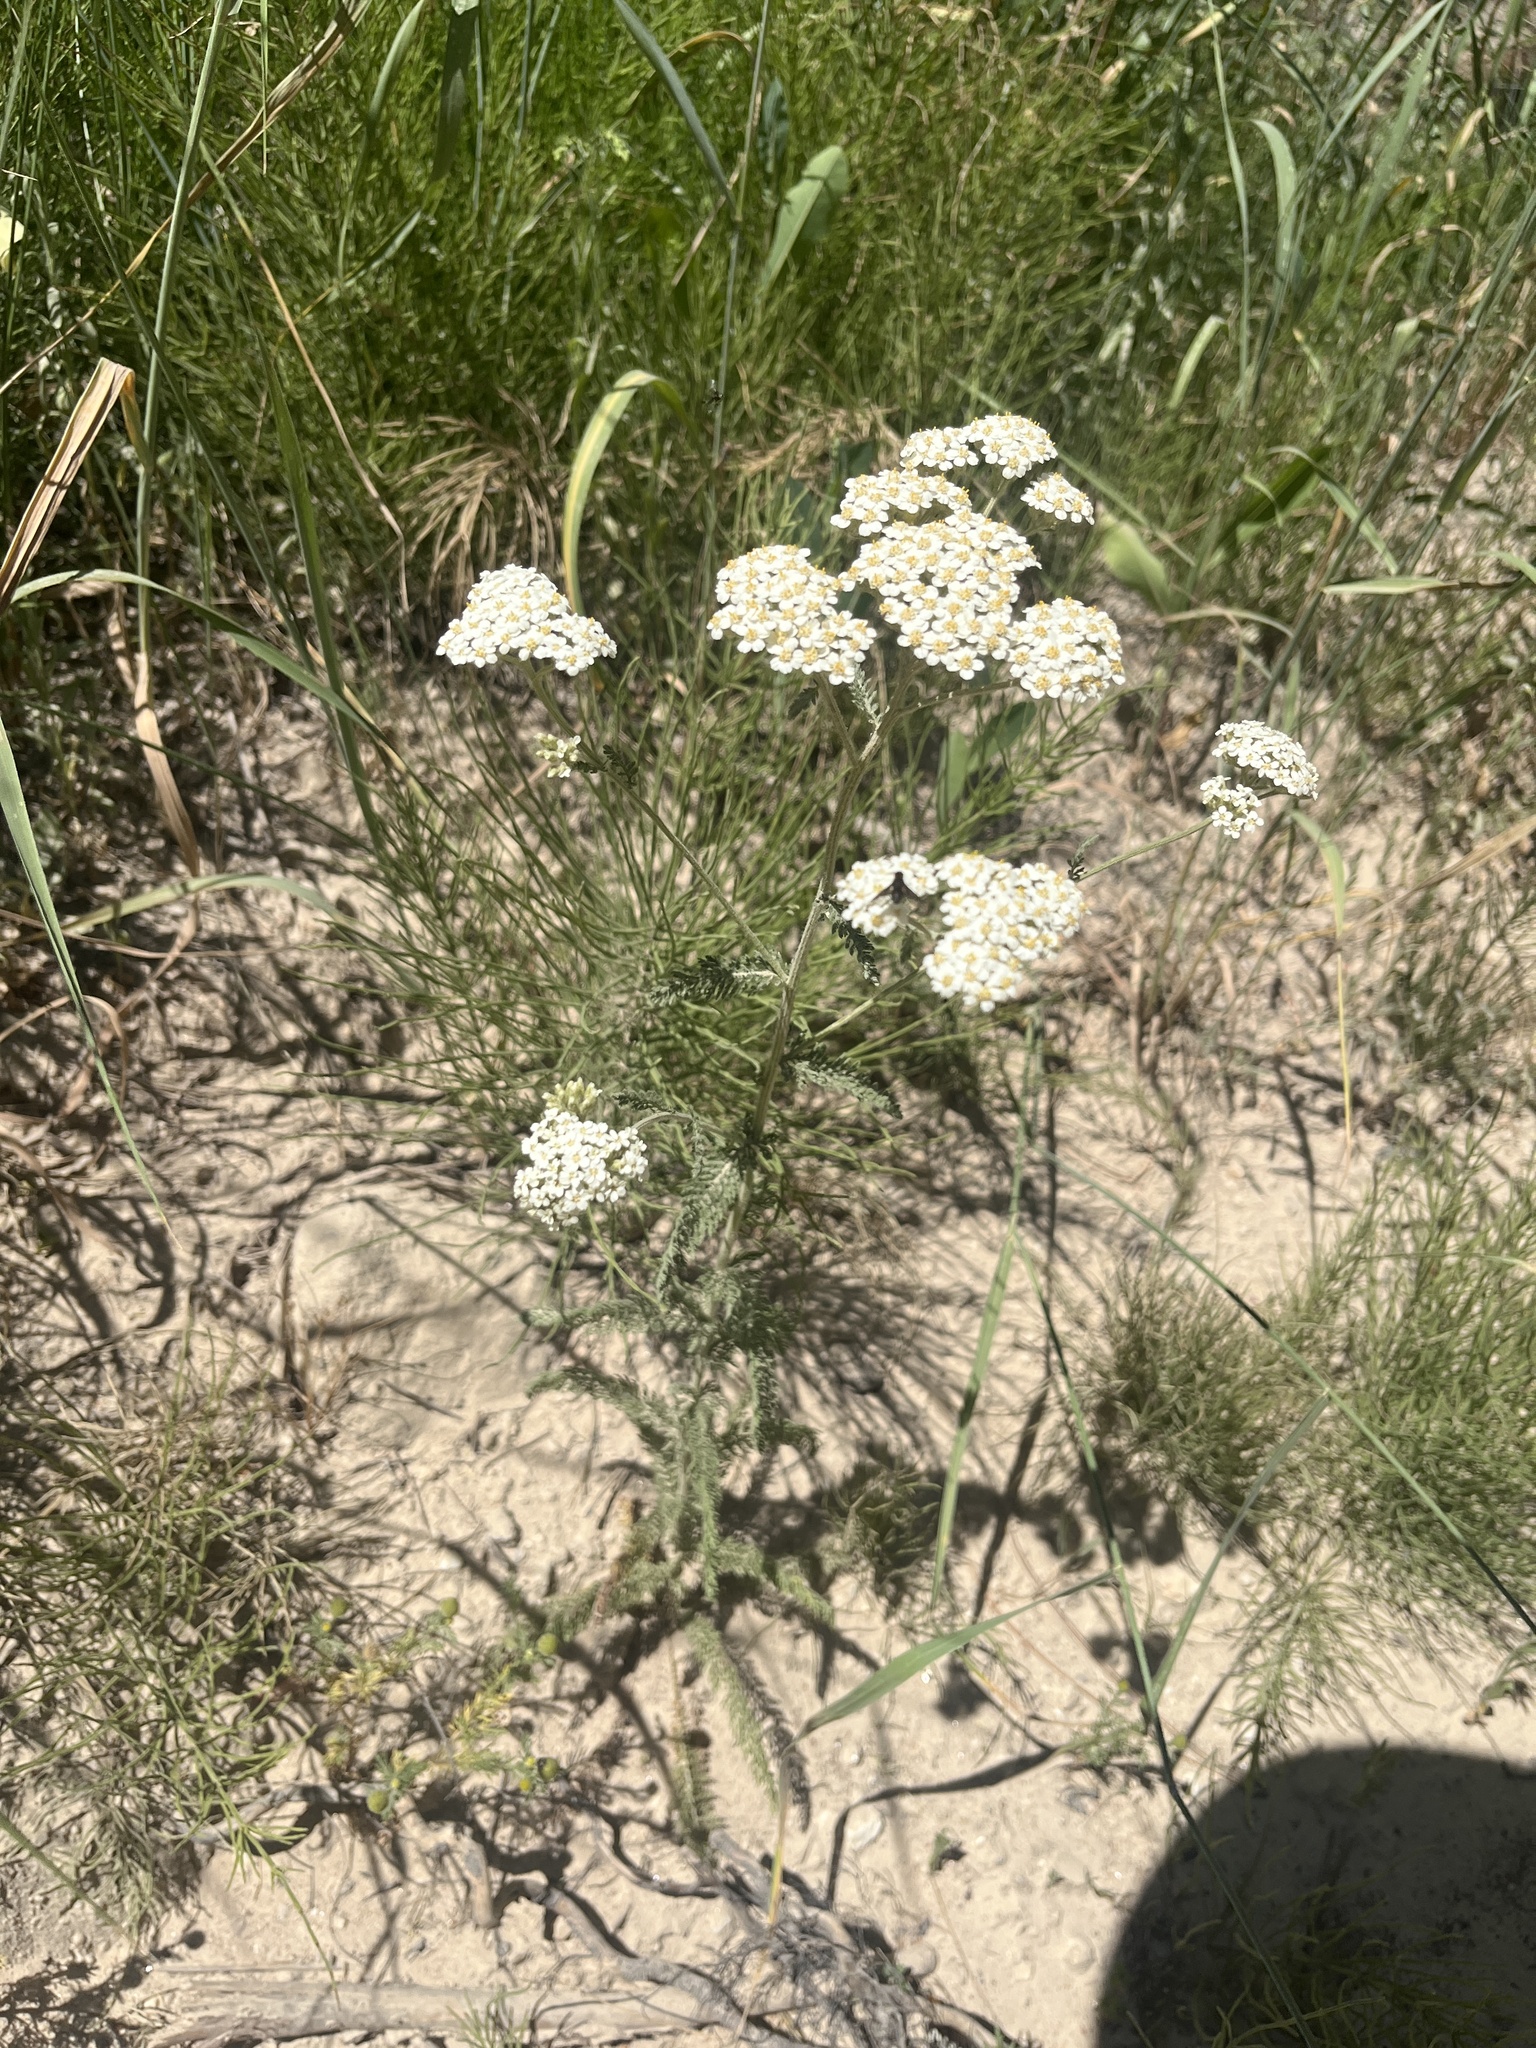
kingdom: Plantae
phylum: Tracheophyta
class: Magnoliopsida
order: Asterales
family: Asteraceae
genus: Achillea
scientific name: Achillea millefolium
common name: Yarrow
